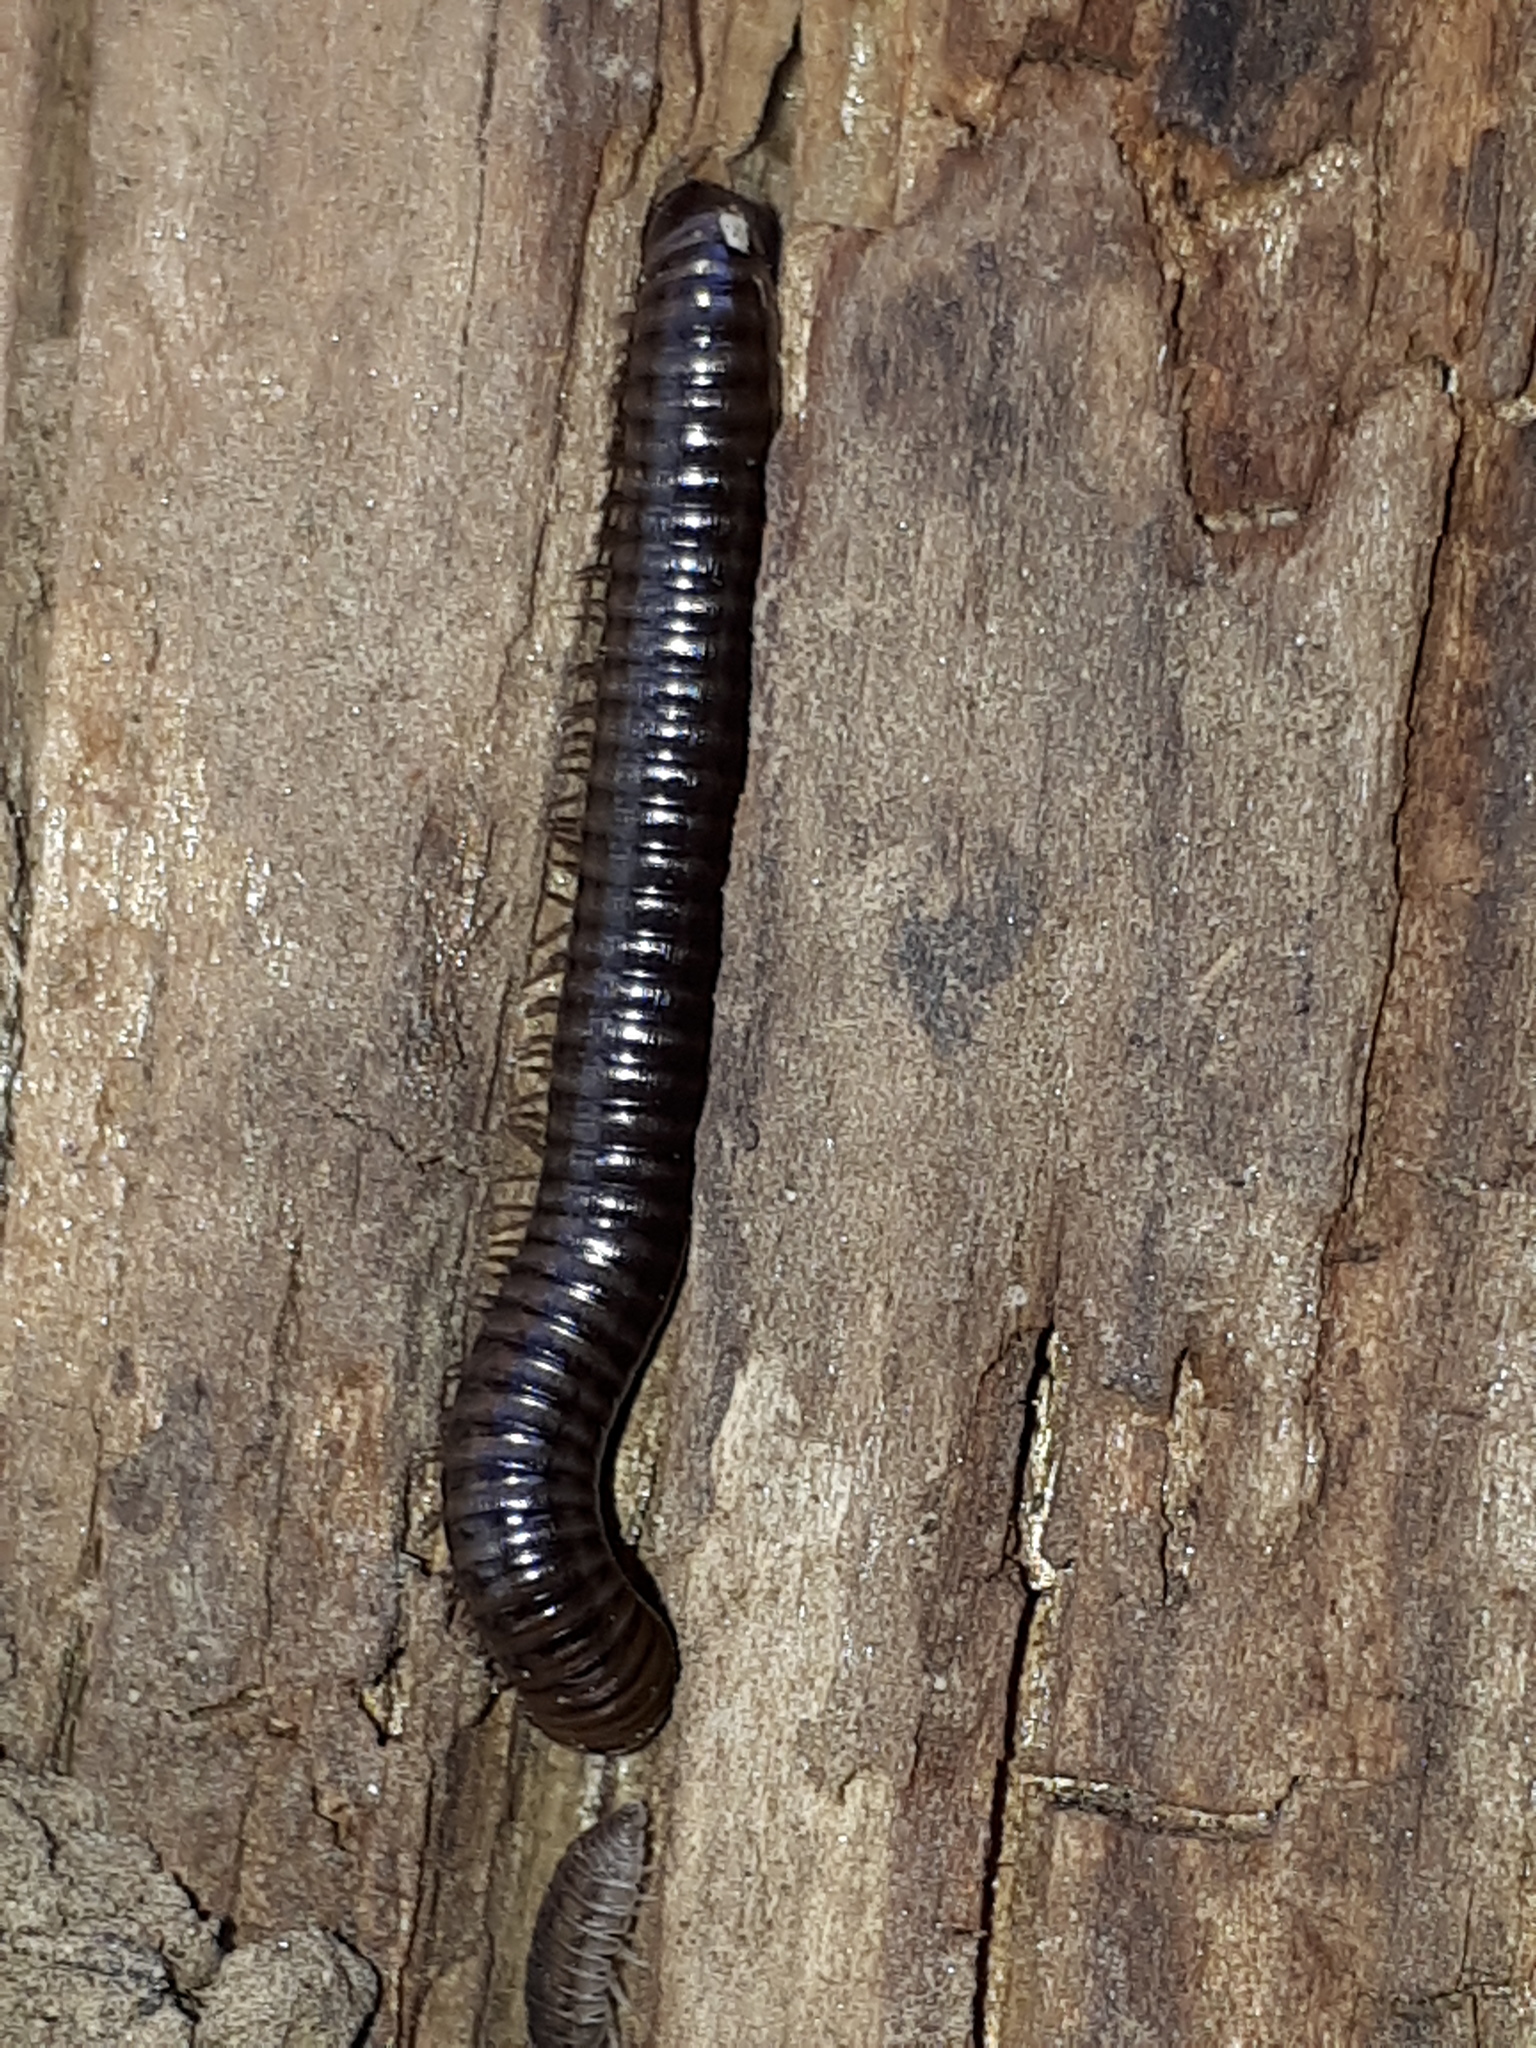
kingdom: Animalia
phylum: Arthropoda
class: Diplopoda
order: Julida
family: Julidae
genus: Cylindroiulus
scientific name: Cylindroiulus caeruleocinctus
